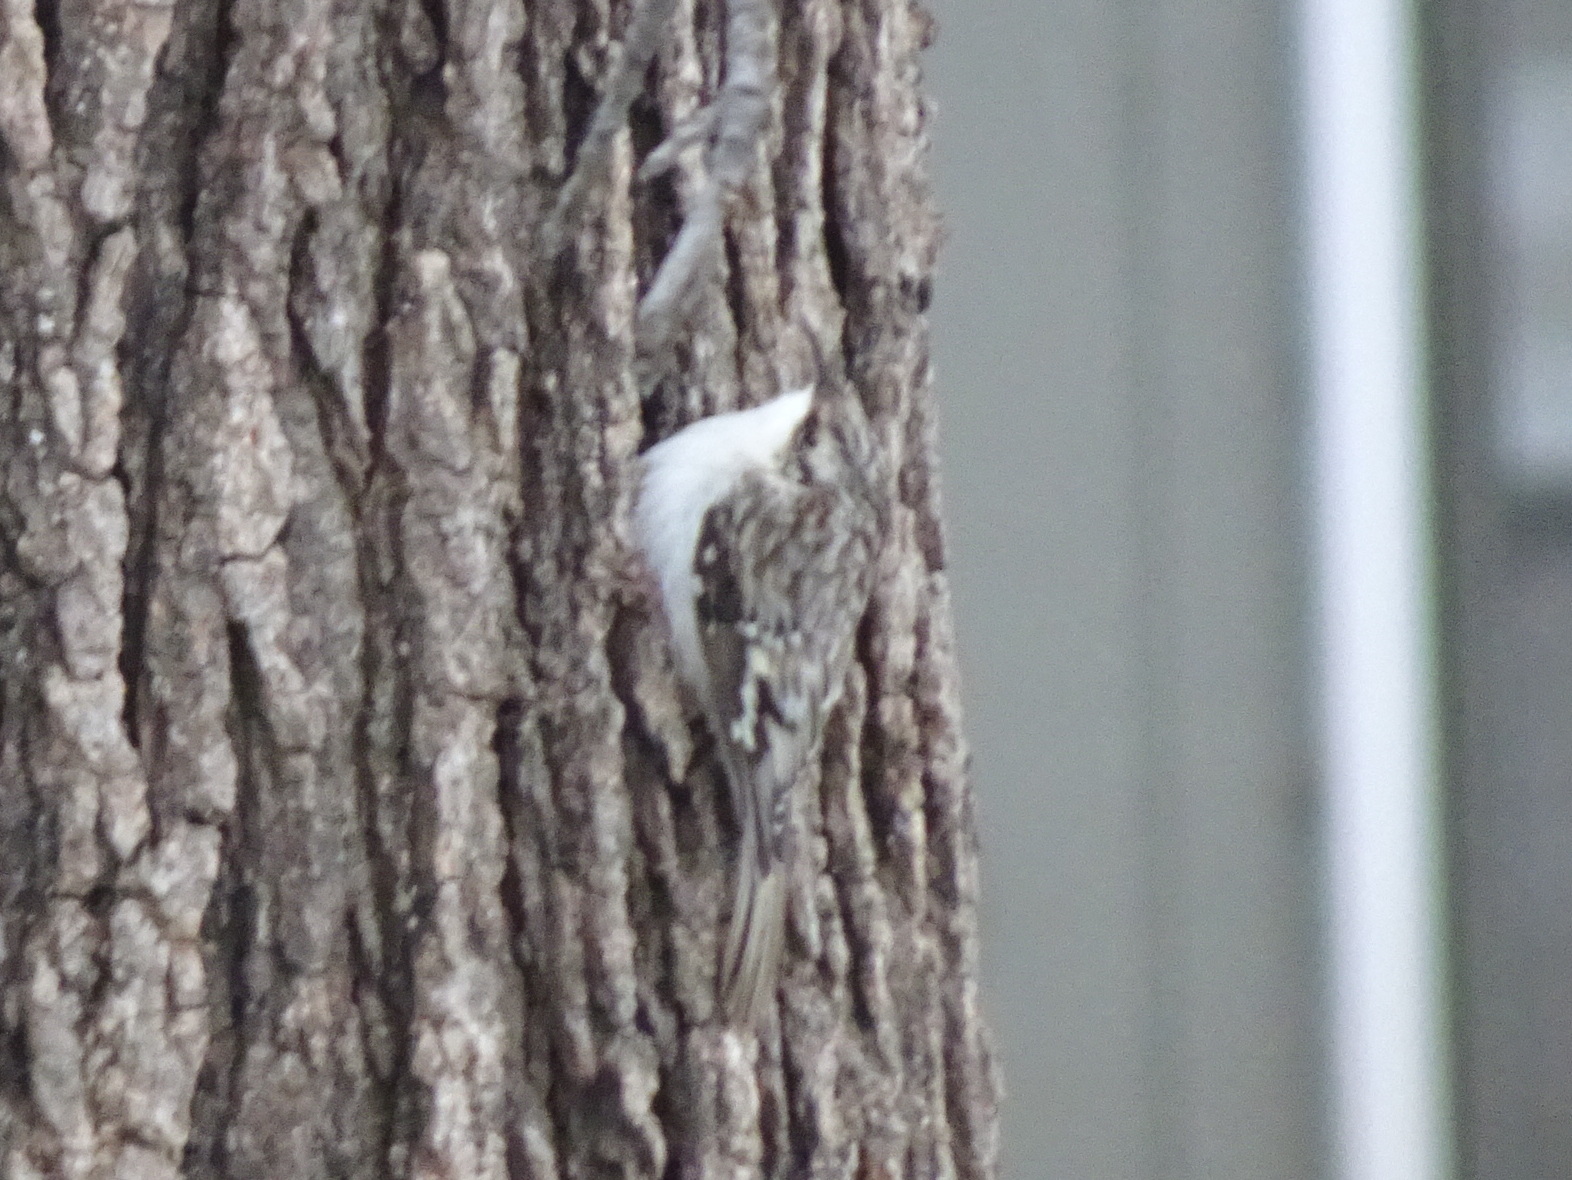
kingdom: Animalia
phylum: Chordata
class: Aves
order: Passeriformes
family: Certhiidae
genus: Certhia
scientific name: Certhia americana
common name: Brown creeper
